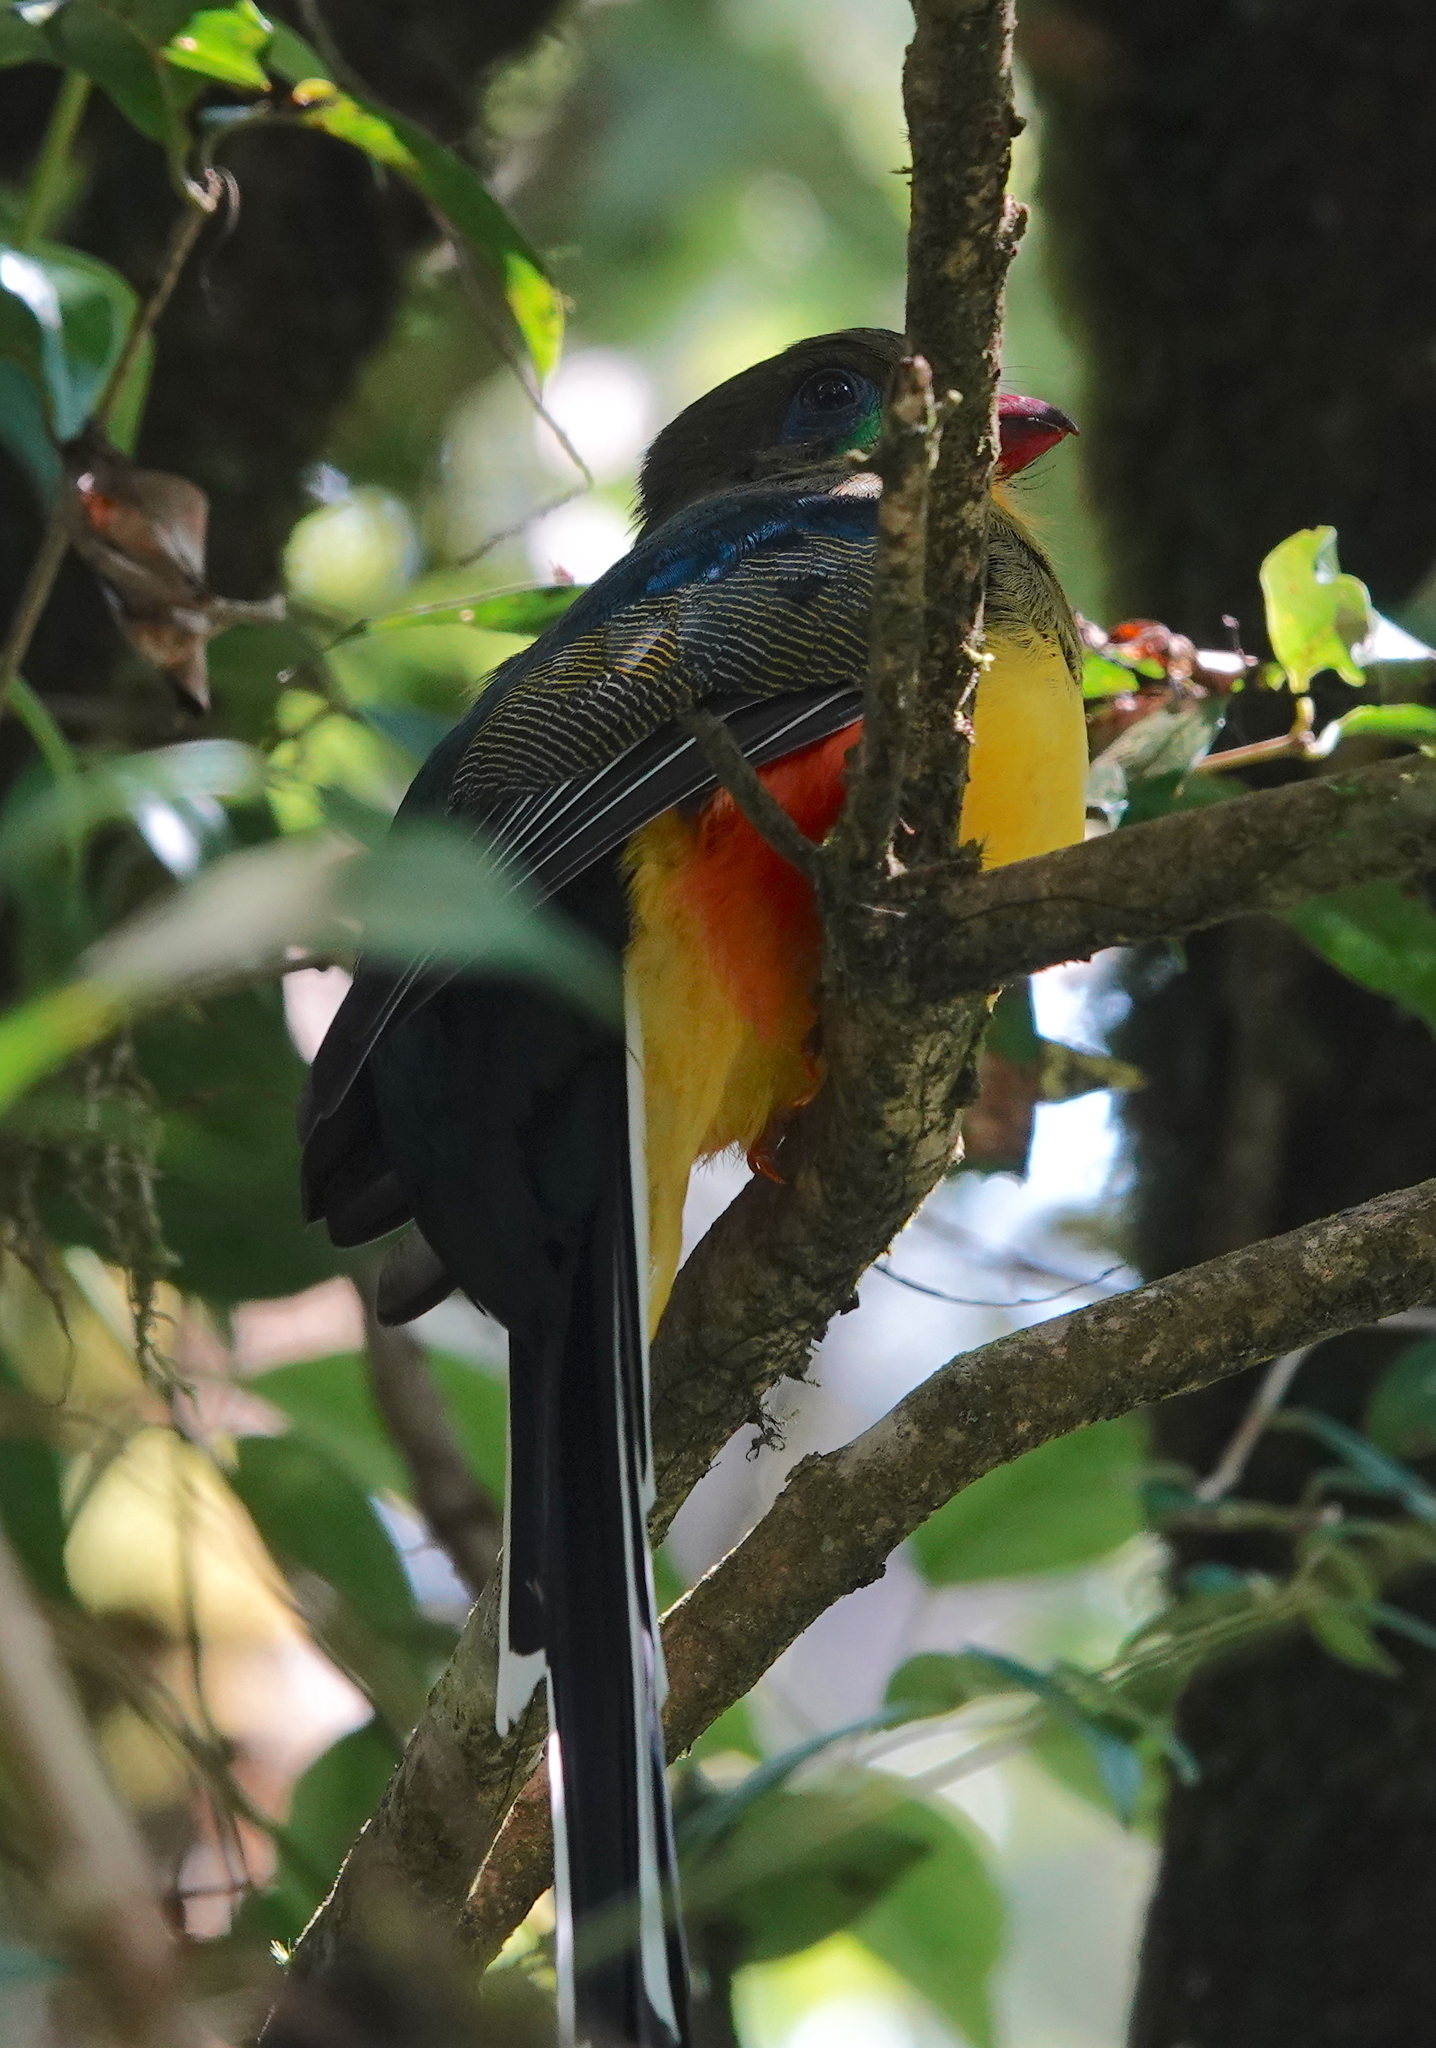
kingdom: Animalia
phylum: Chordata
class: Aves
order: Trogoniformes
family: Trogonidae
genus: Apalharpactes
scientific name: Apalharpactes reinwardtii
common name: Javan trogon
